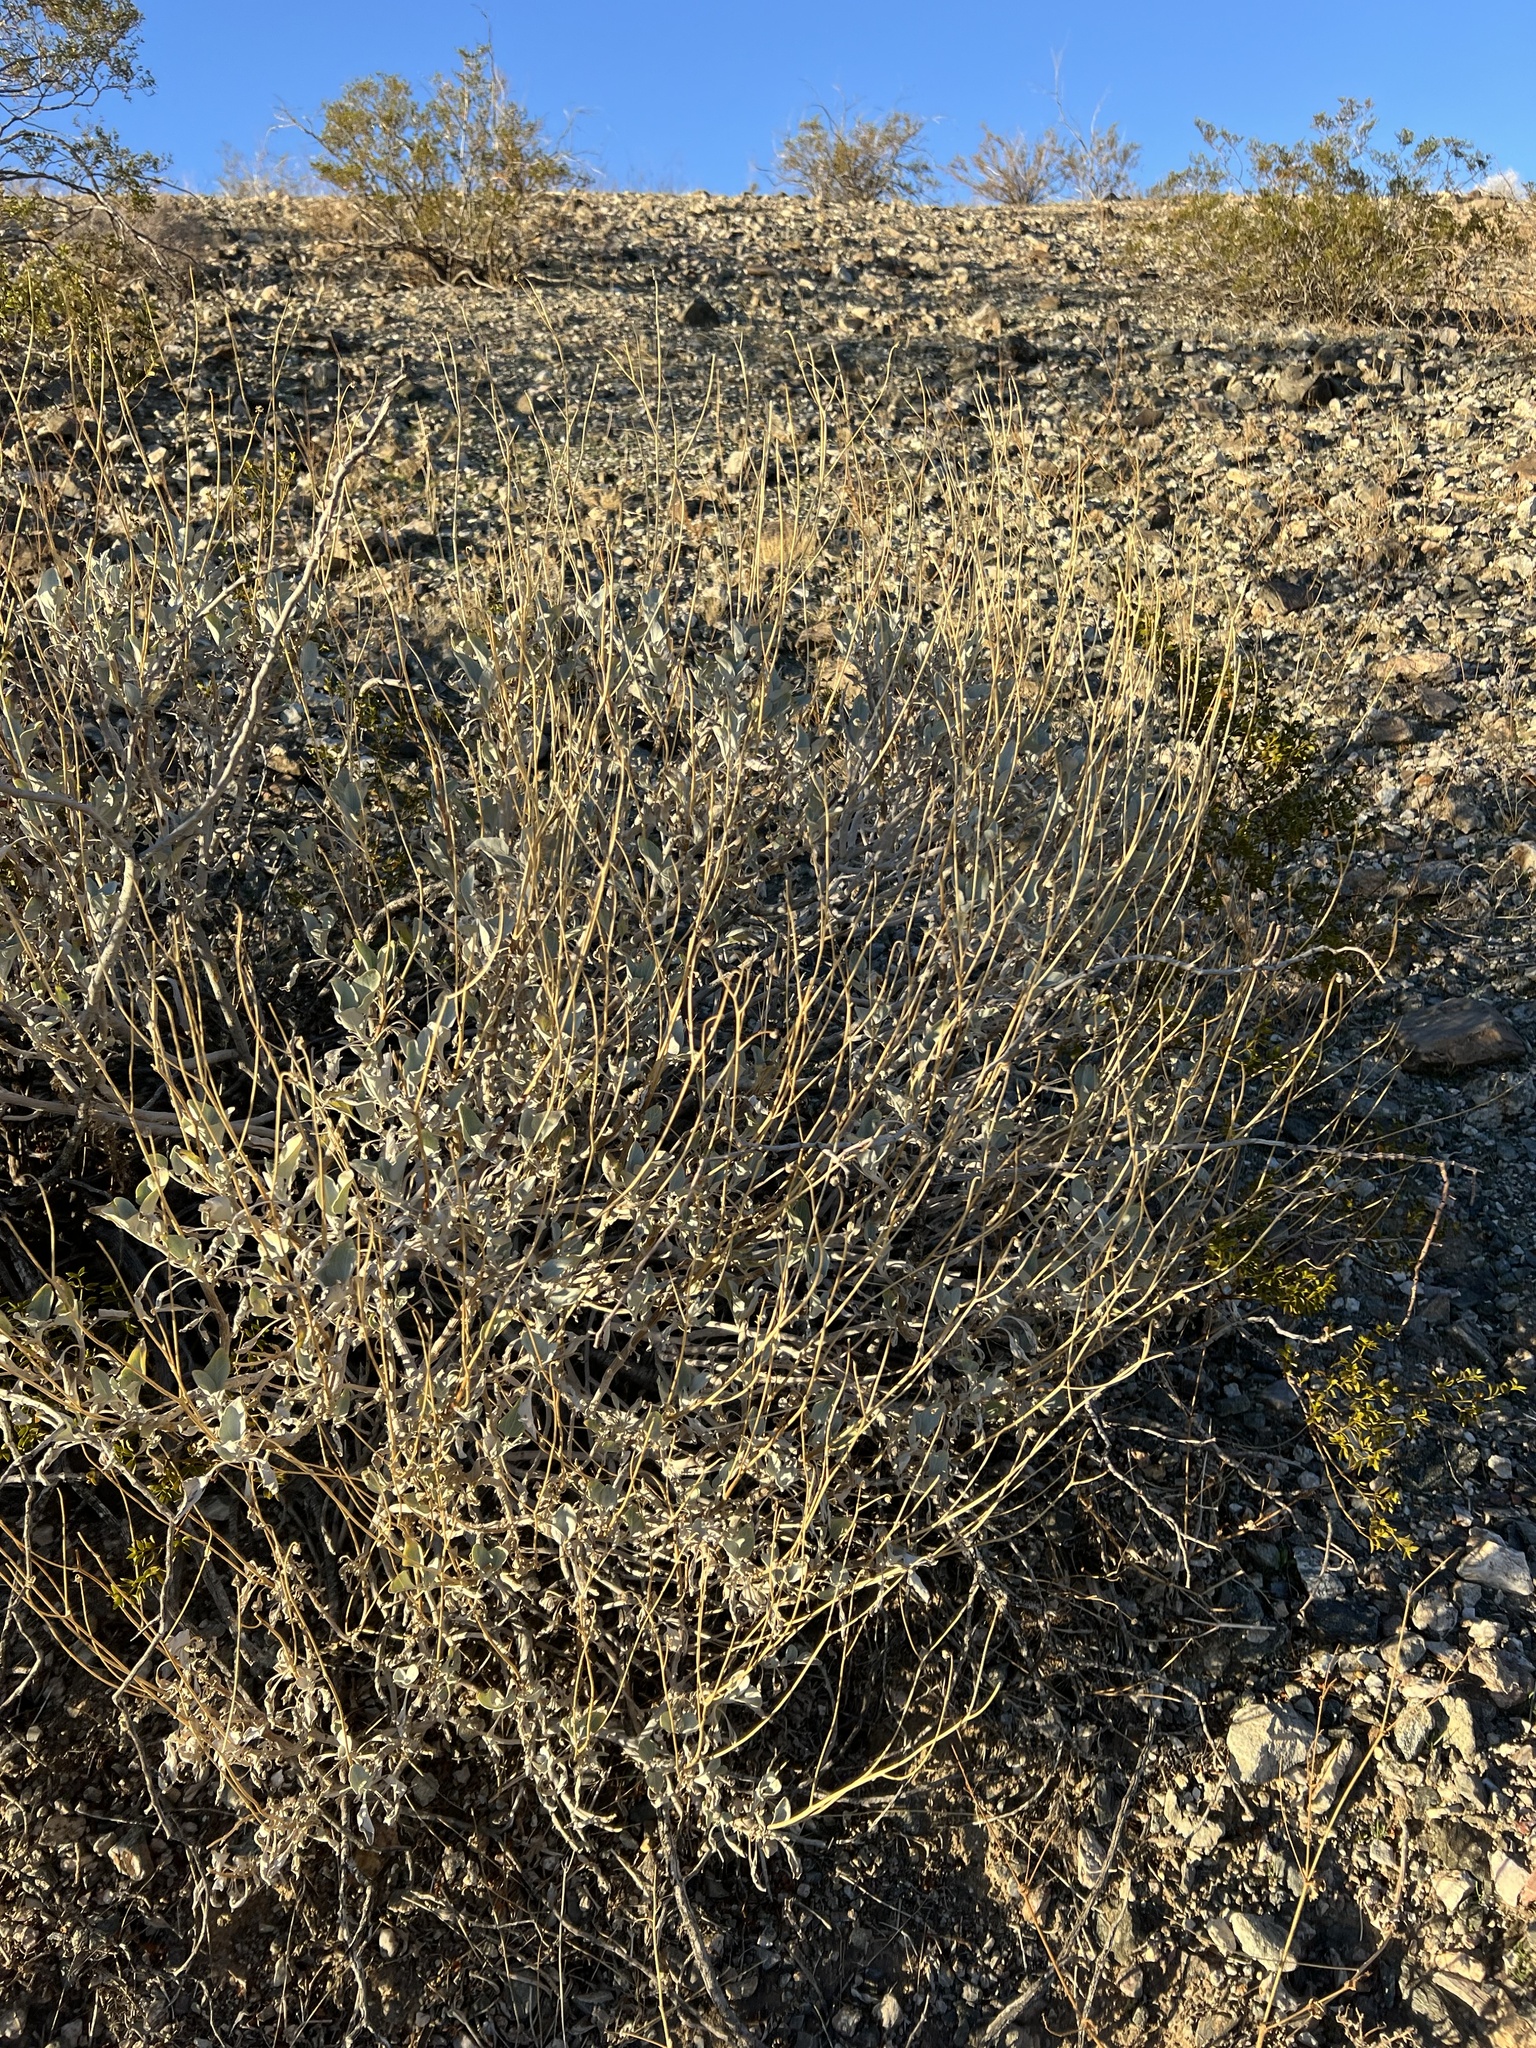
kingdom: Plantae
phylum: Tracheophyta
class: Magnoliopsida
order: Asterales
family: Asteraceae
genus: Encelia
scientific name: Encelia farinosa
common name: Brittlebush
